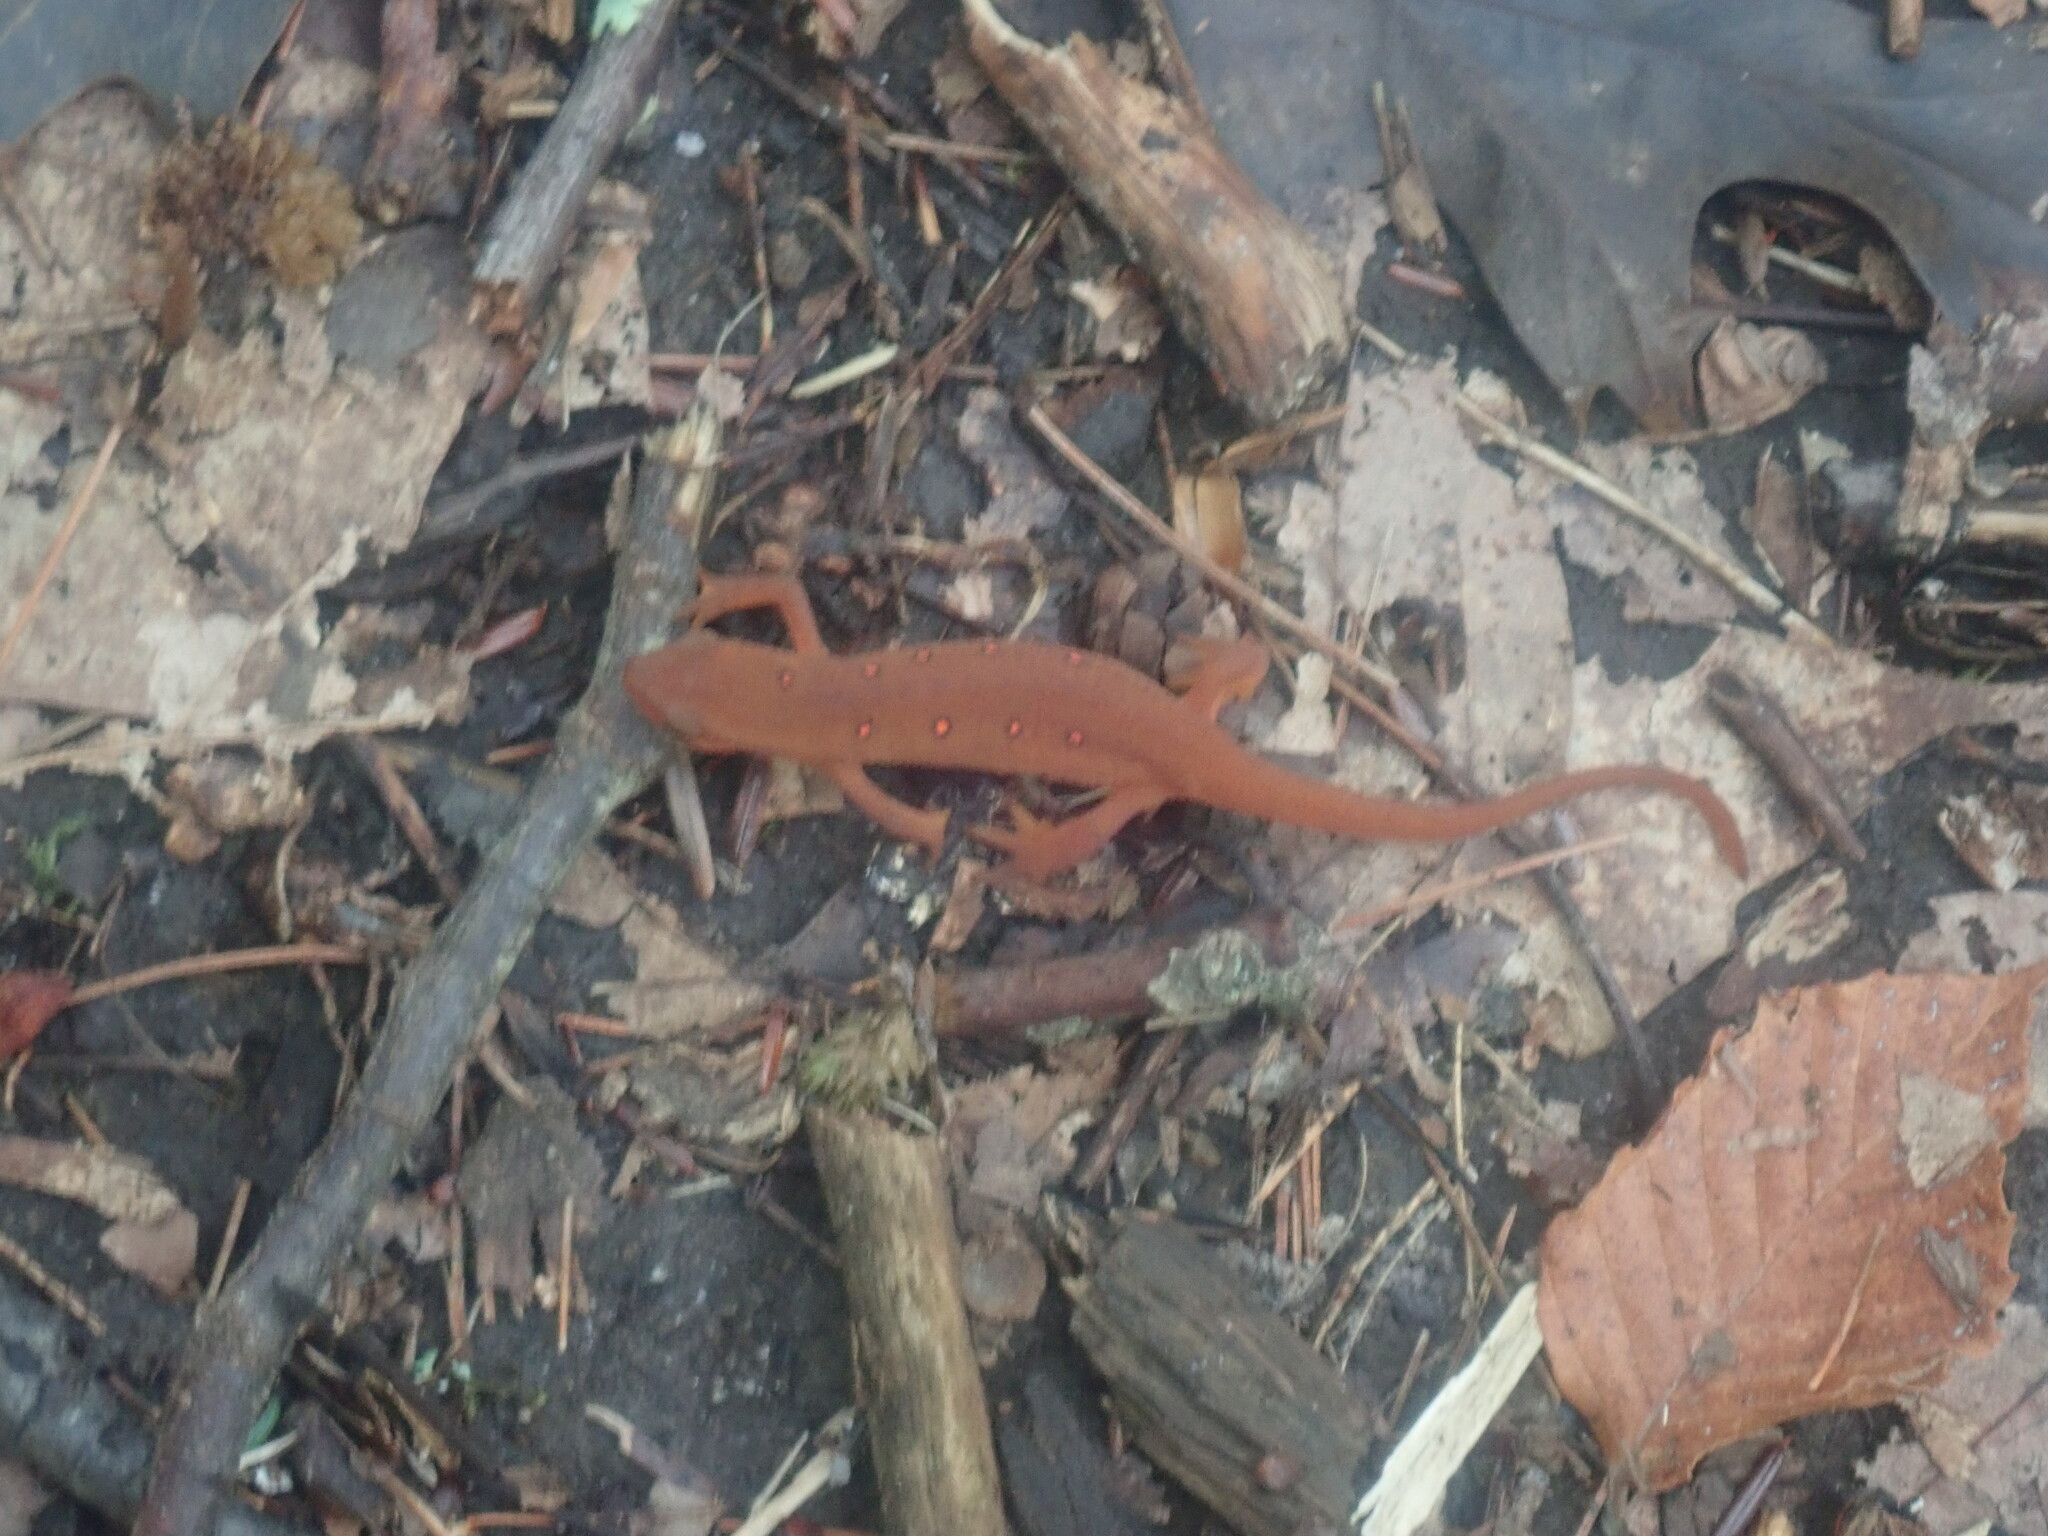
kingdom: Animalia
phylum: Chordata
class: Amphibia
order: Caudata
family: Salamandridae
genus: Notophthalmus
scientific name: Notophthalmus viridescens
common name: Eastern newt
